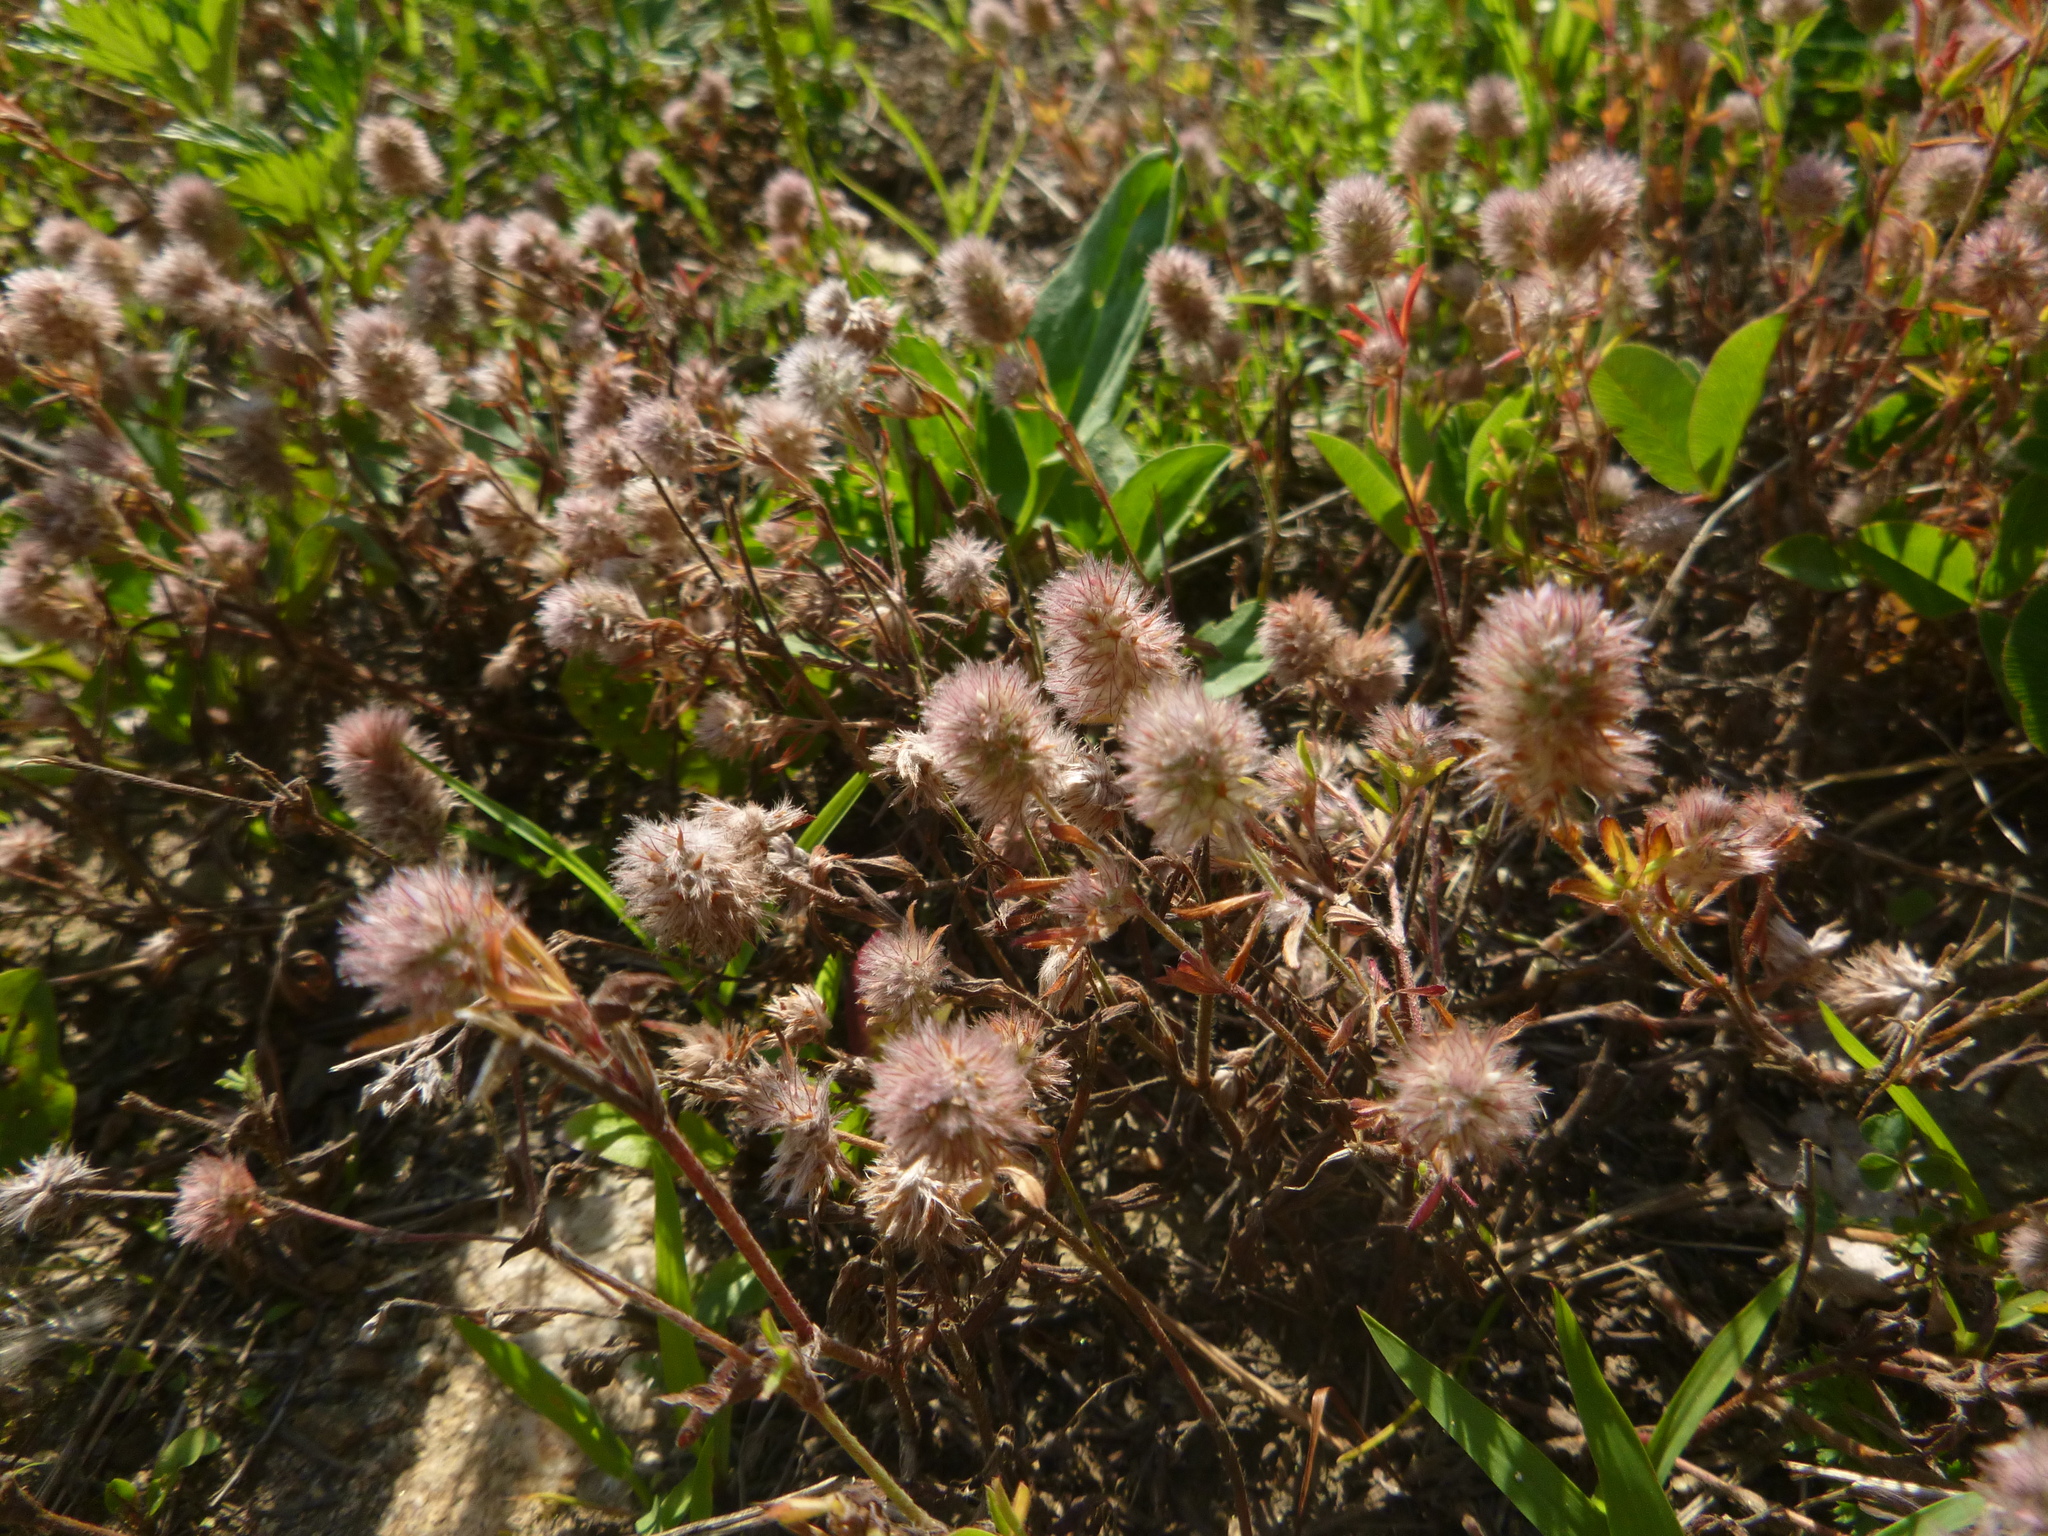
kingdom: Plantae
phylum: Tracheophyta
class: Magnoliopsida
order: Fabales
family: Fabaceae
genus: Trifolium
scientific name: Trifolium arvense
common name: Hare's-foot clover
